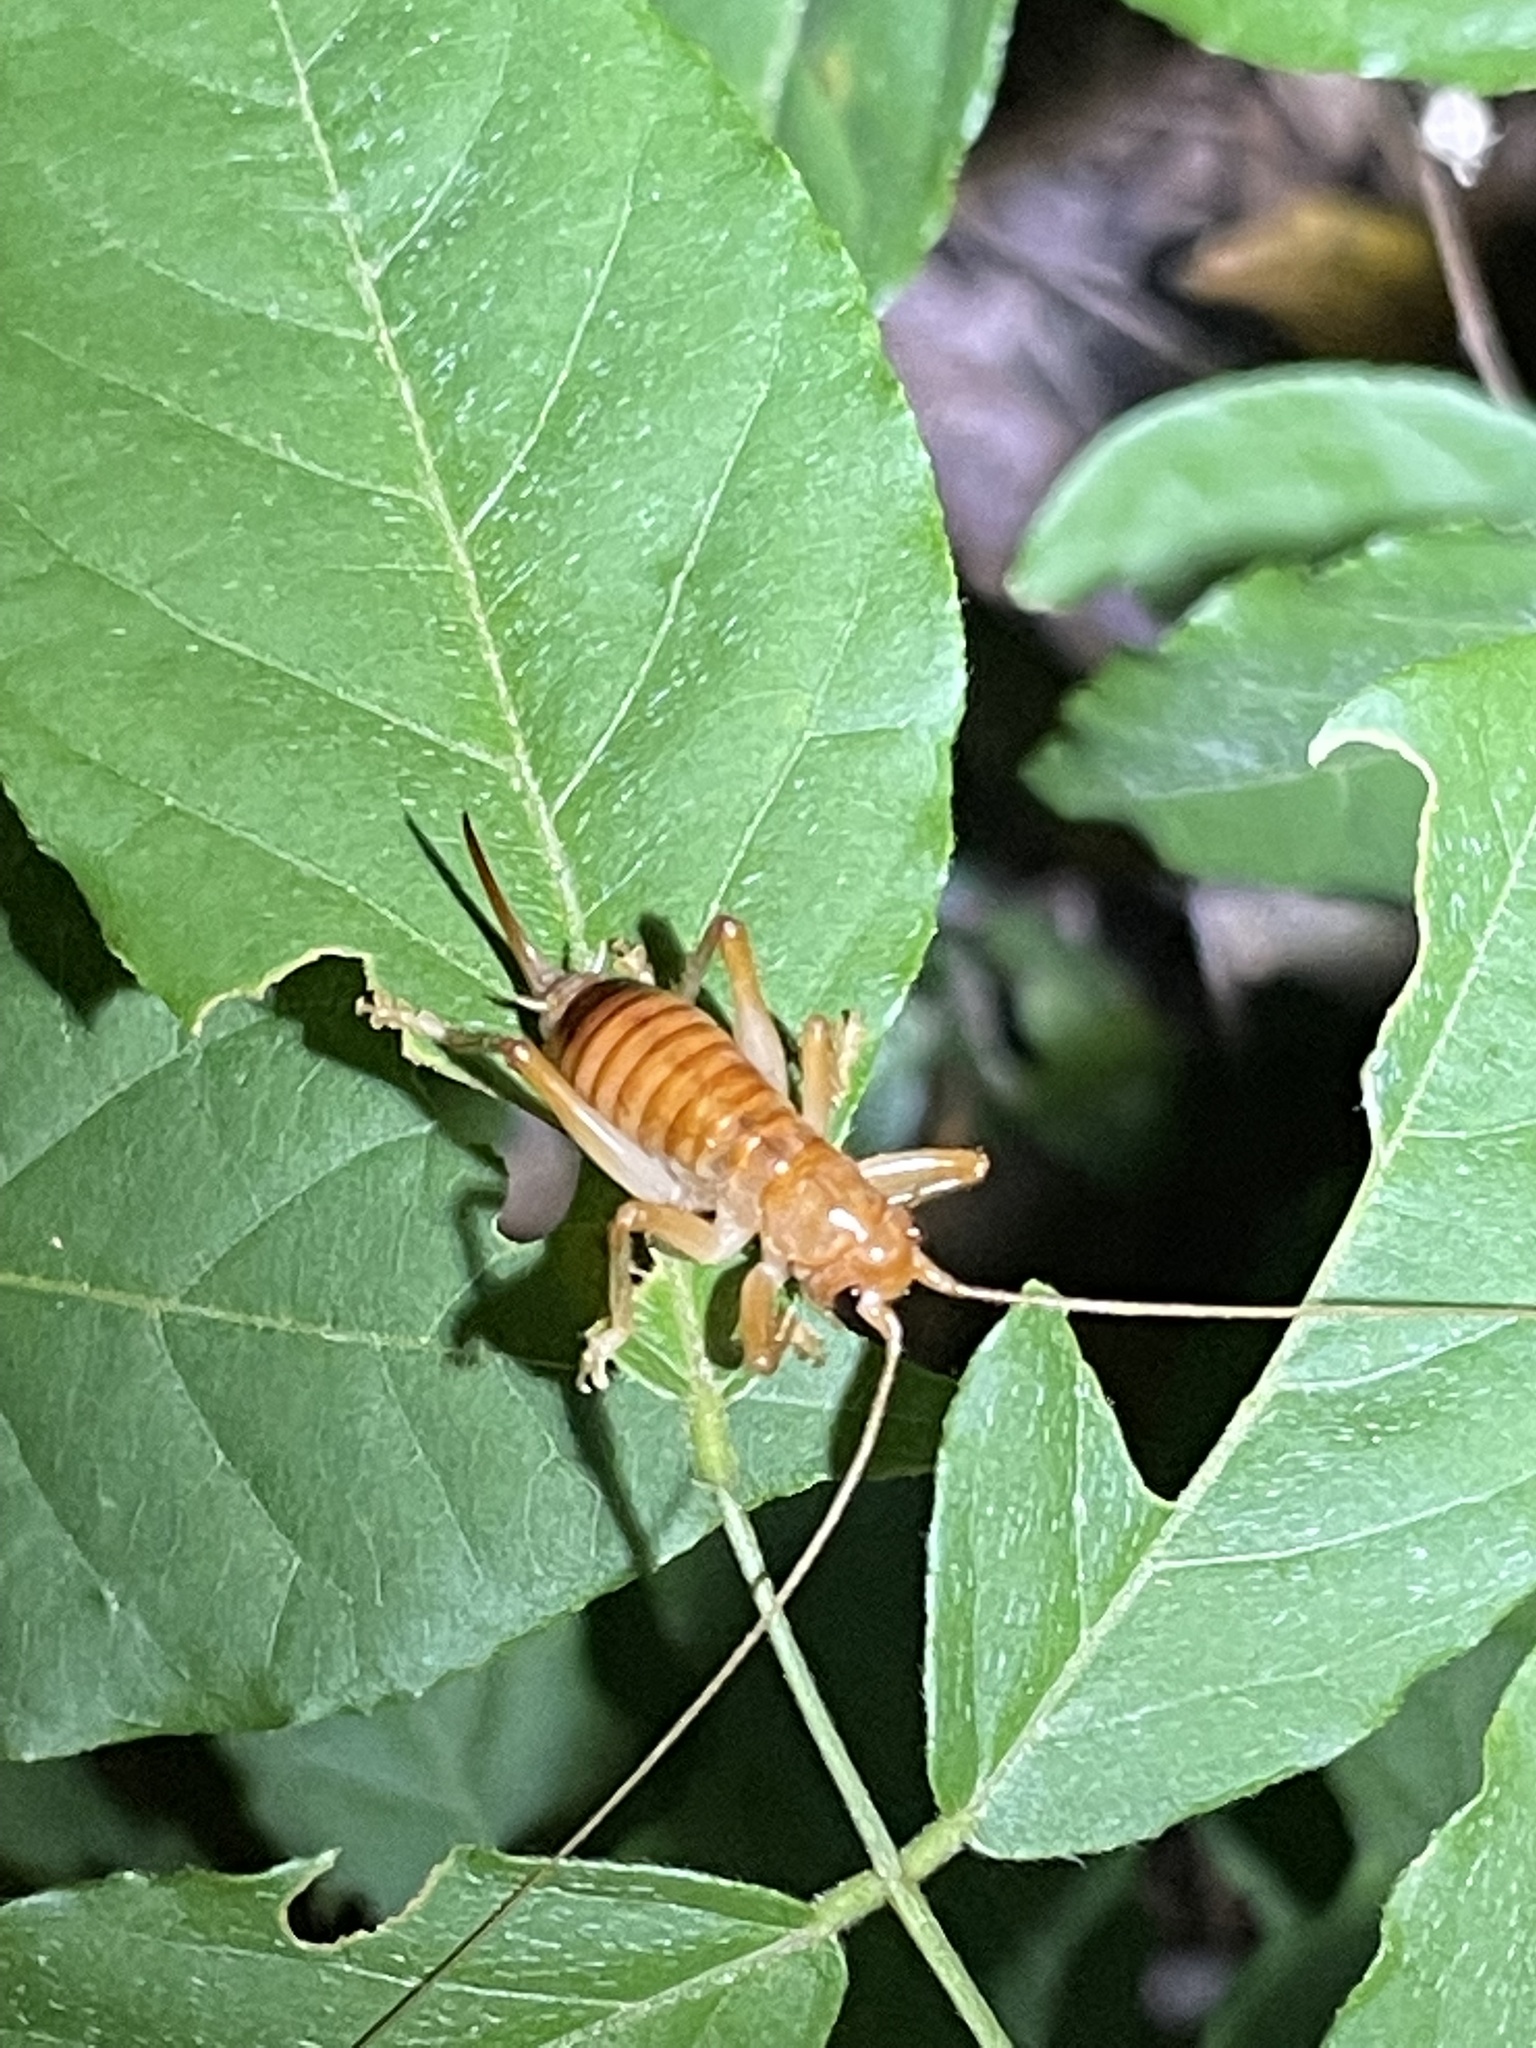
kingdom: Animalia
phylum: Arthropoda
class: Insecta
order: Orthoptera
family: Gryllacrididae
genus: Camptonotus
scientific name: Camptonotus carolinensis
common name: Carolina leaf-roller
